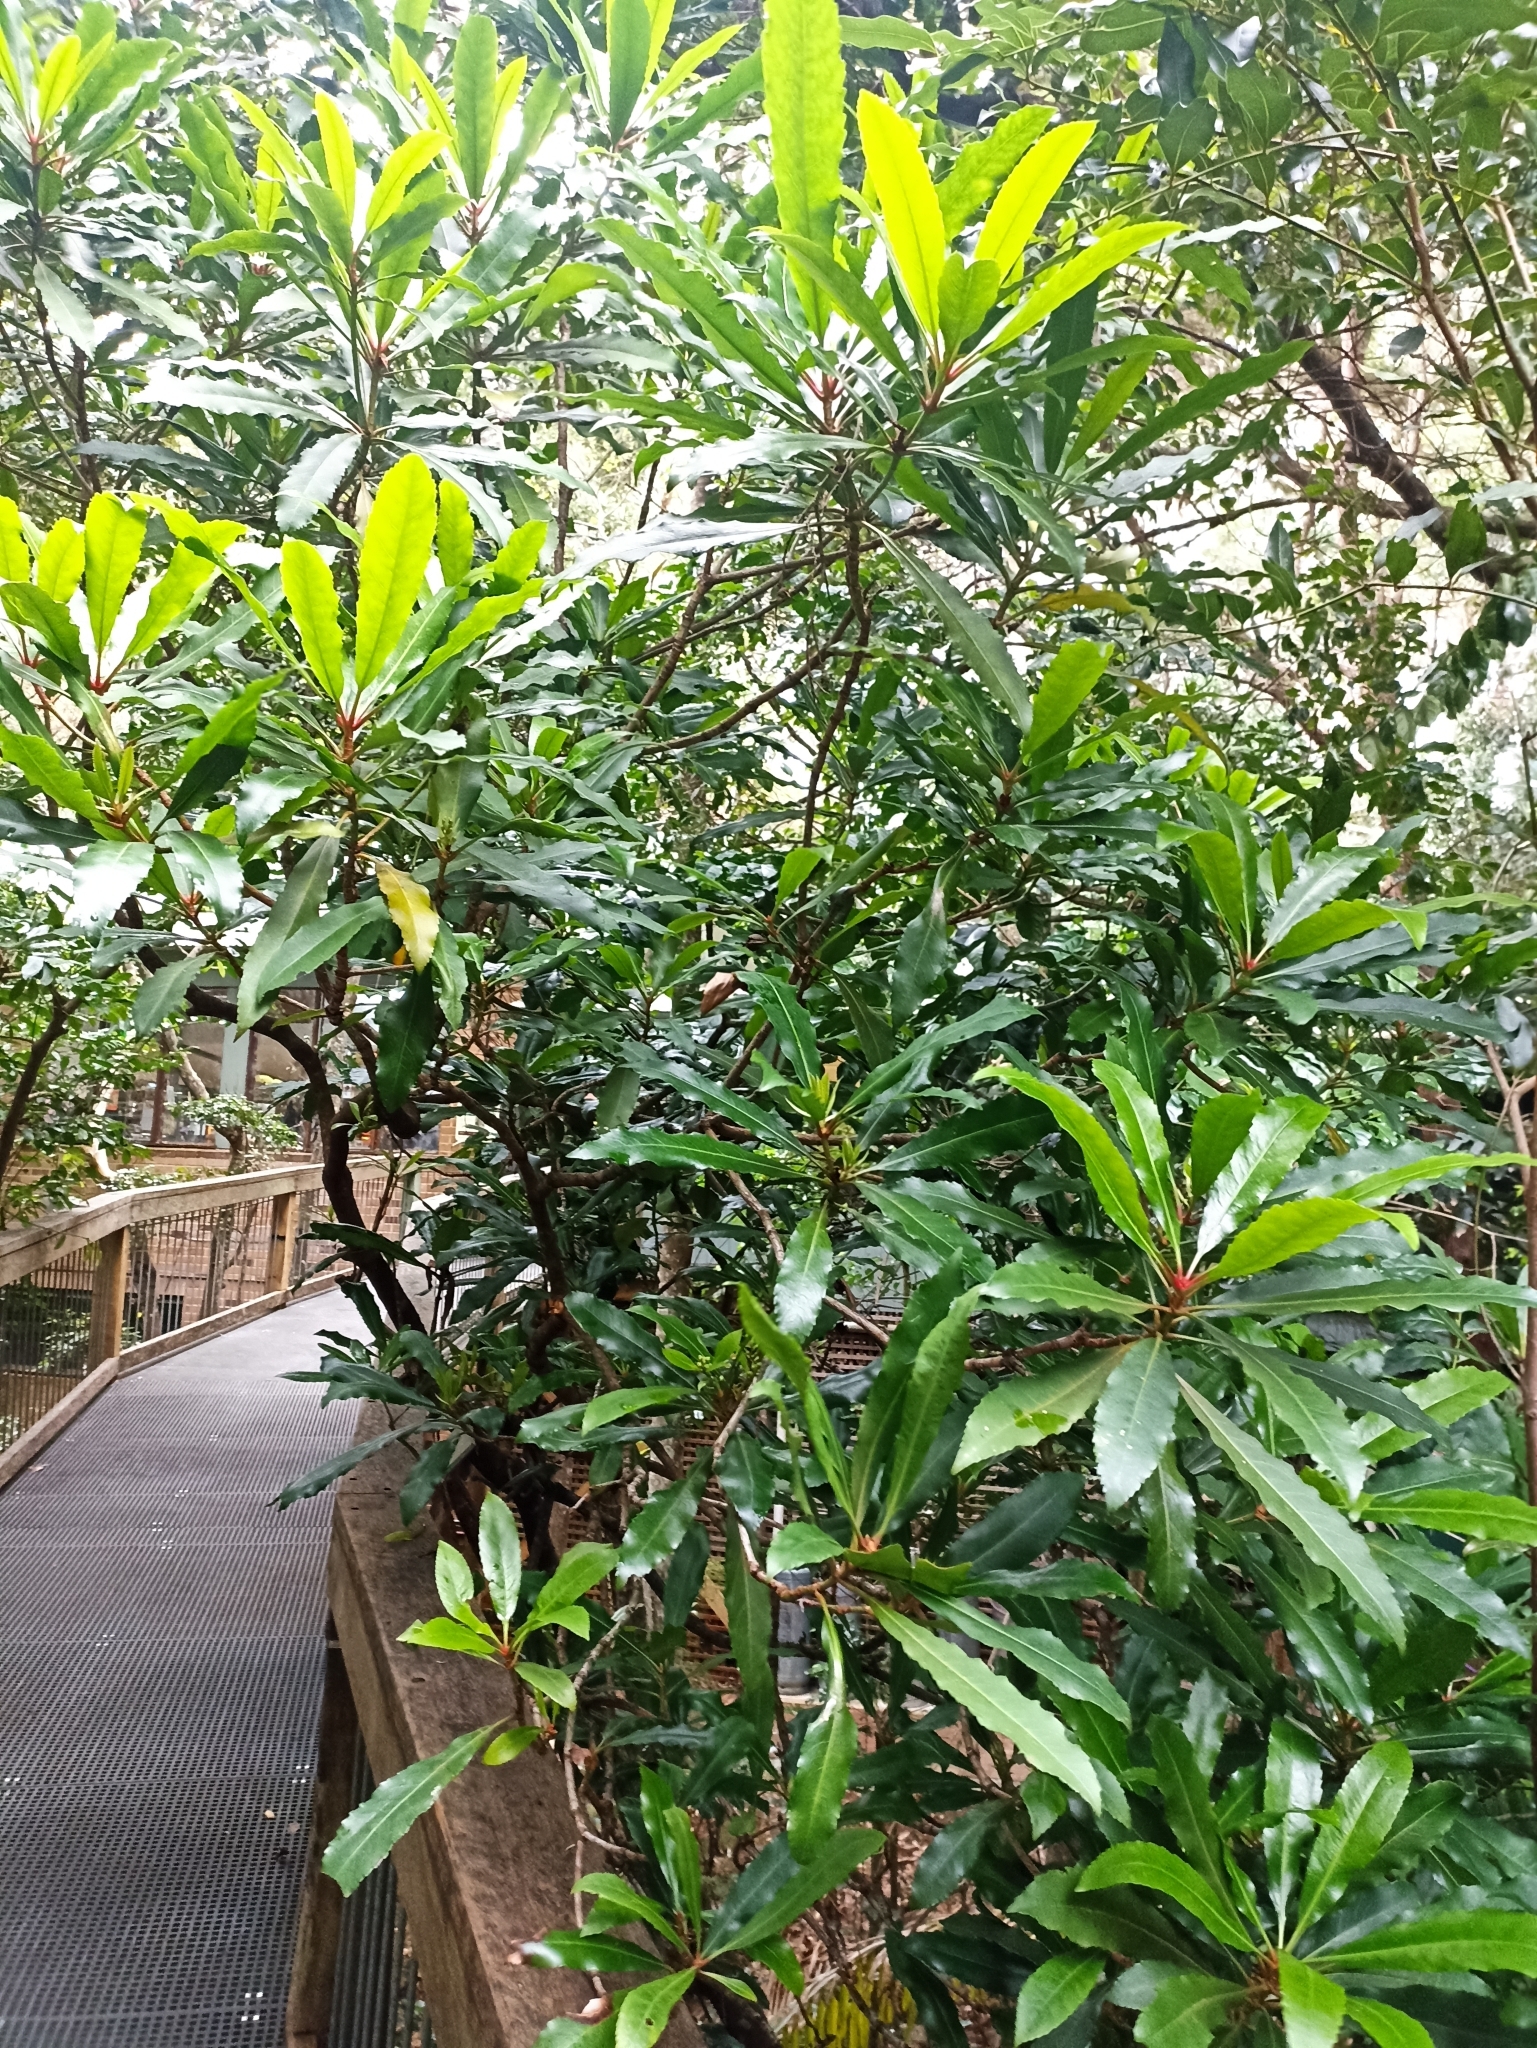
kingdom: Plantae
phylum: Tracheophyta
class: Magnoliopsida
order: Escalloniales
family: Escalloniaceae
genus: Anopterus
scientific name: Anopterus macleayanus
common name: Tasmanian-laurel
